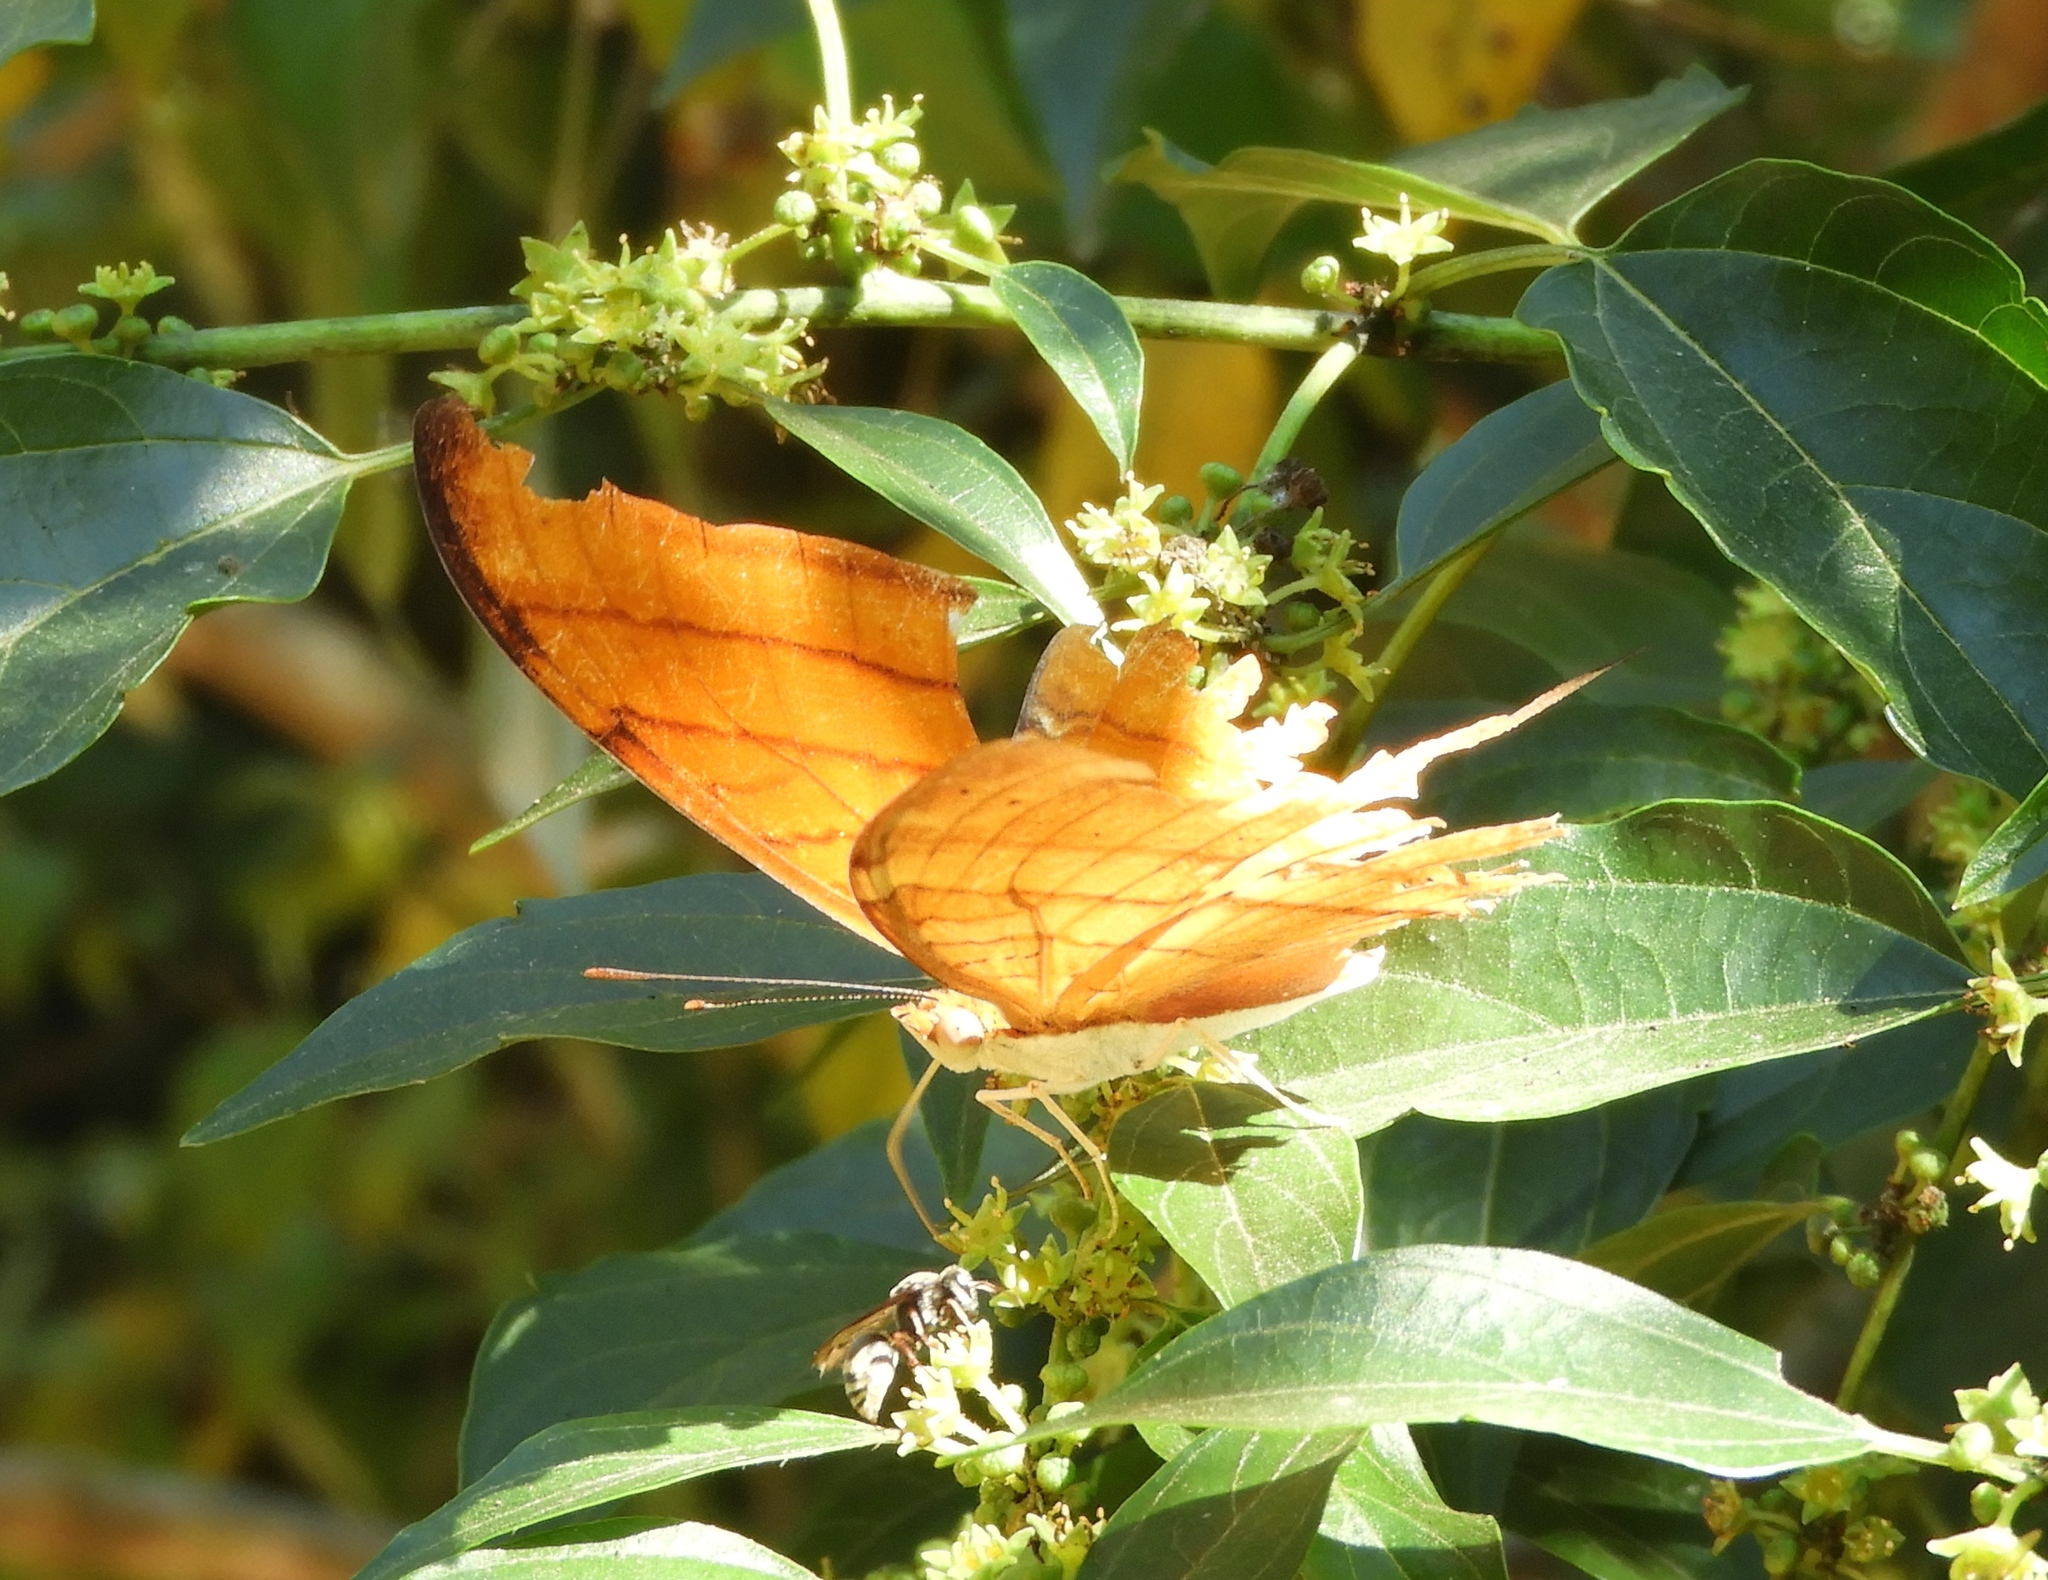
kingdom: Animalia
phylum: Arthropoda
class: Insecta
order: Lepidoptera
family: Nymphalidae
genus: Marpesia
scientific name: Marpesia petreus
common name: Red dagger wing
